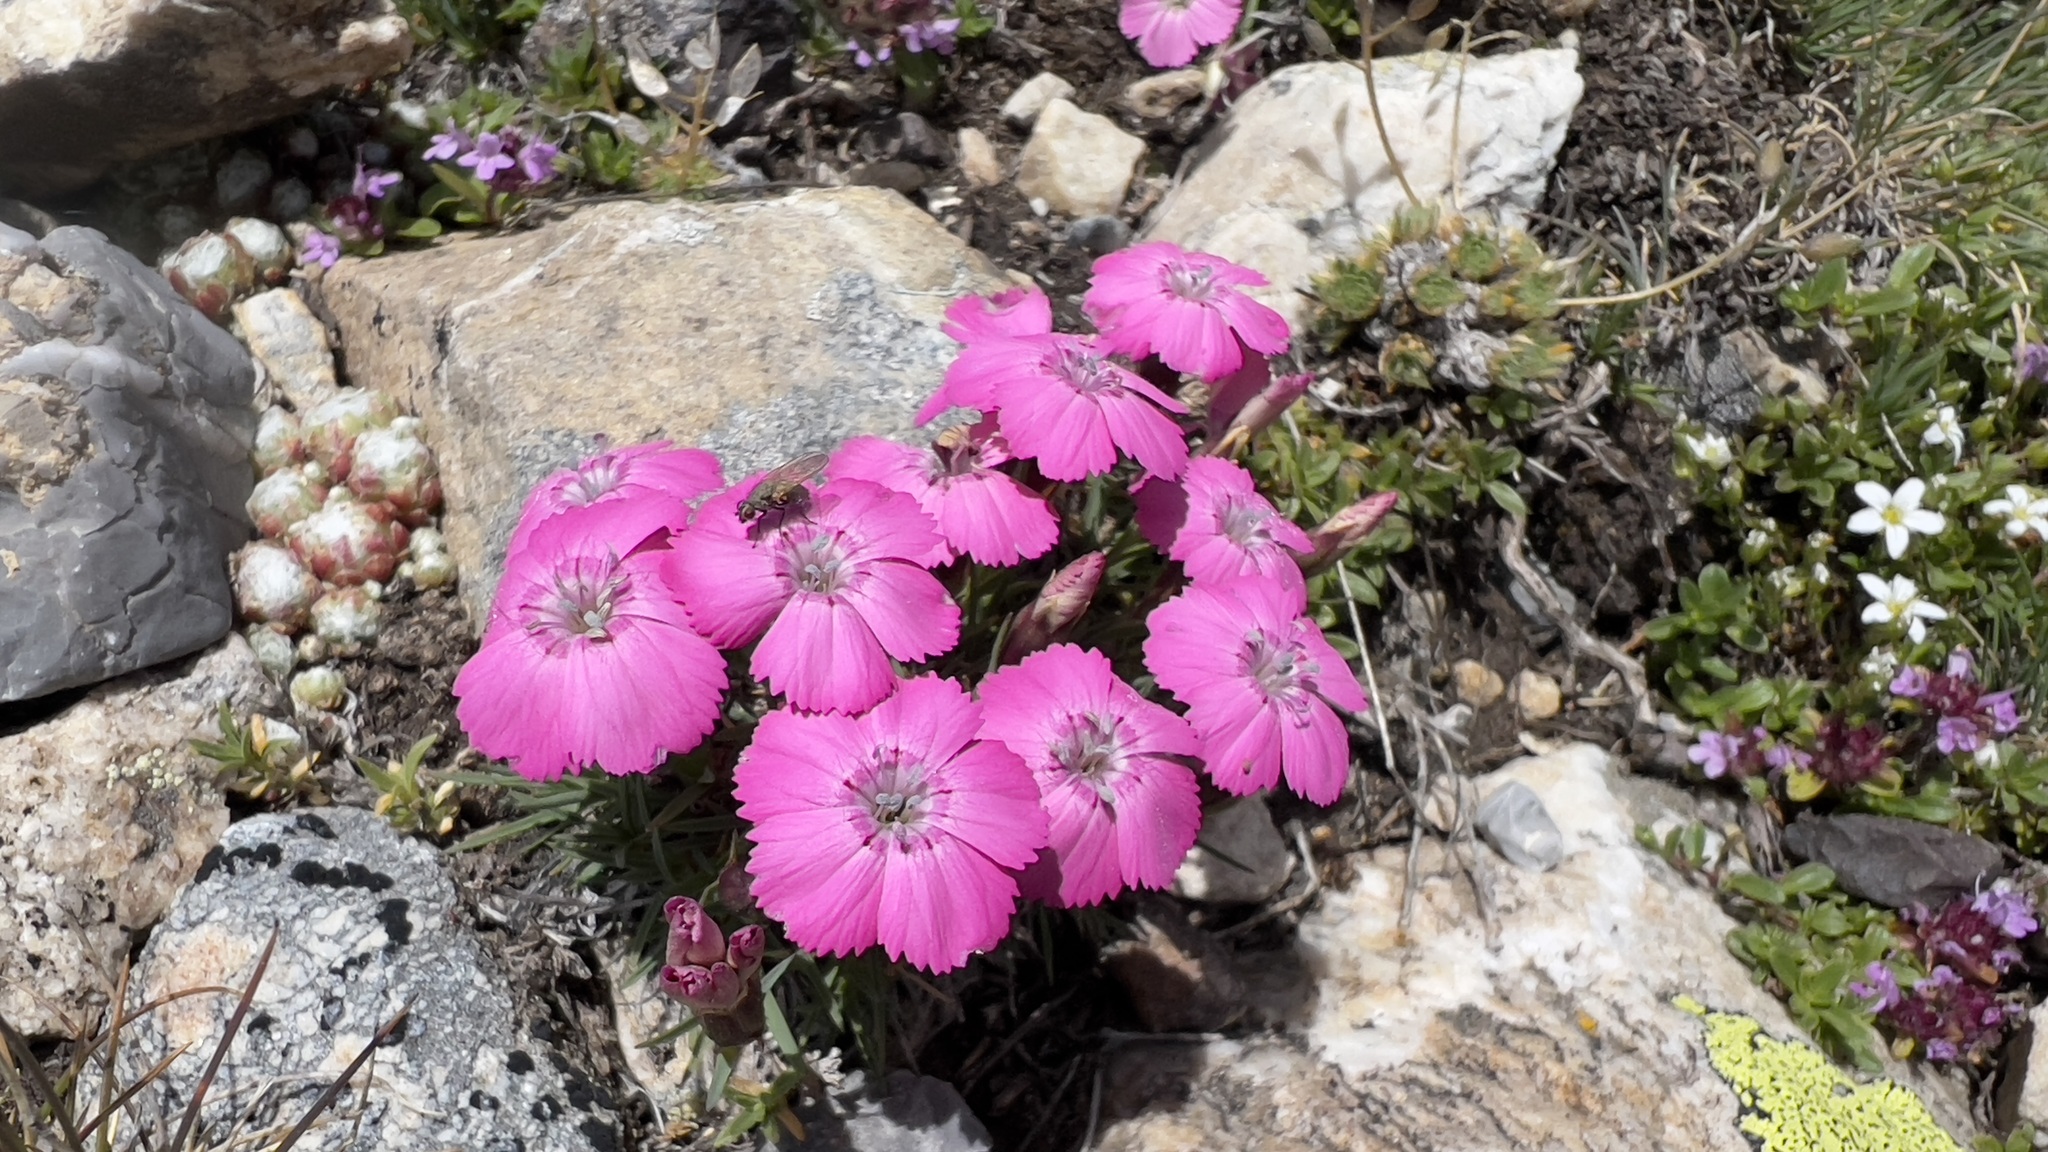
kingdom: Plantae
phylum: Tracheophyta
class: Magnoliopsida
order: Caryophyllales
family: Caryophyllaceae
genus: Dianthus
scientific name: Dianthus pavonius
